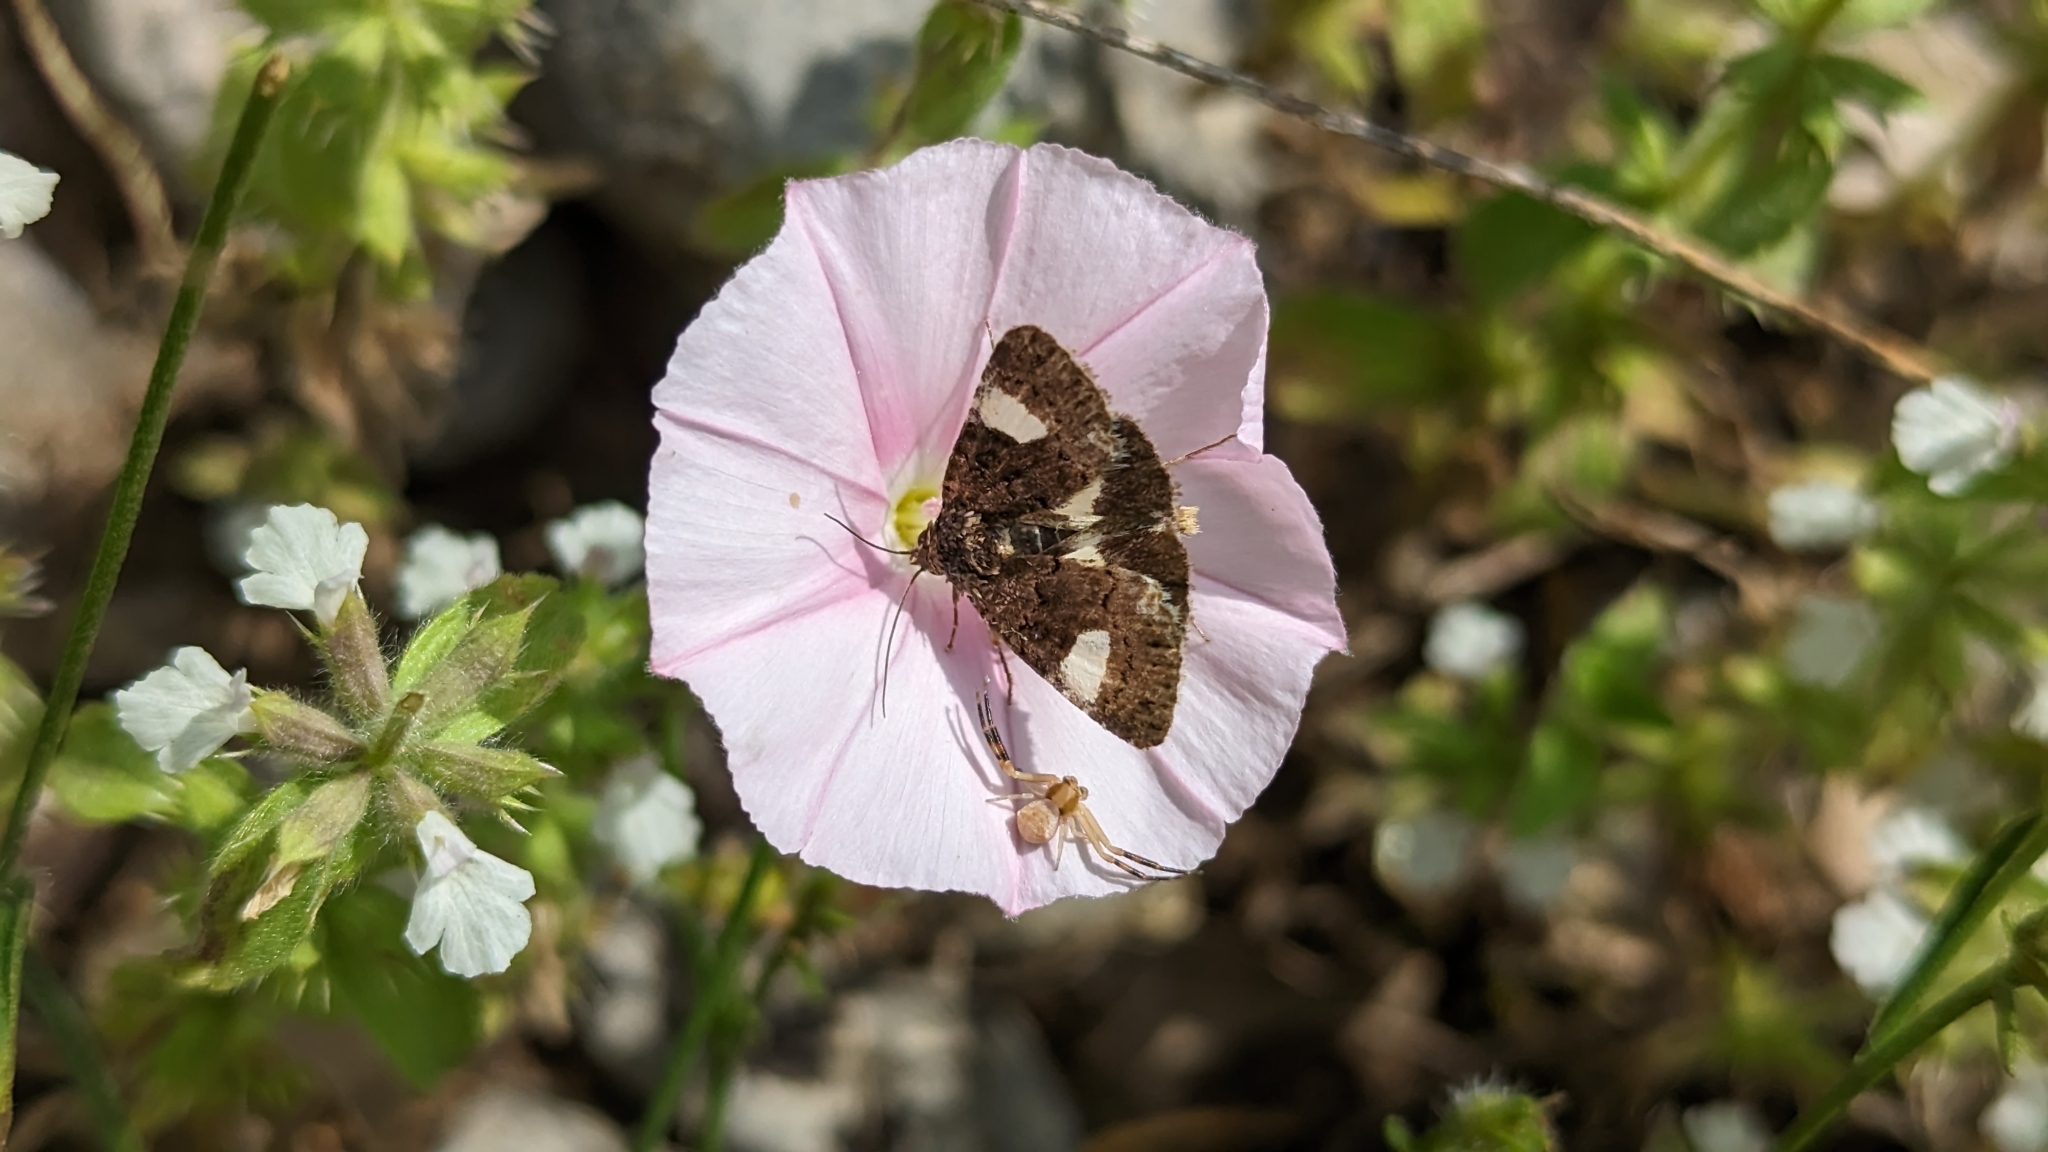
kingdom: Animalia
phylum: Arthropoda
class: Insecta
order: Lepidoptera
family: Erebidae
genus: Tyta
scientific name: Tyta luctuosa
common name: Four-spotted
